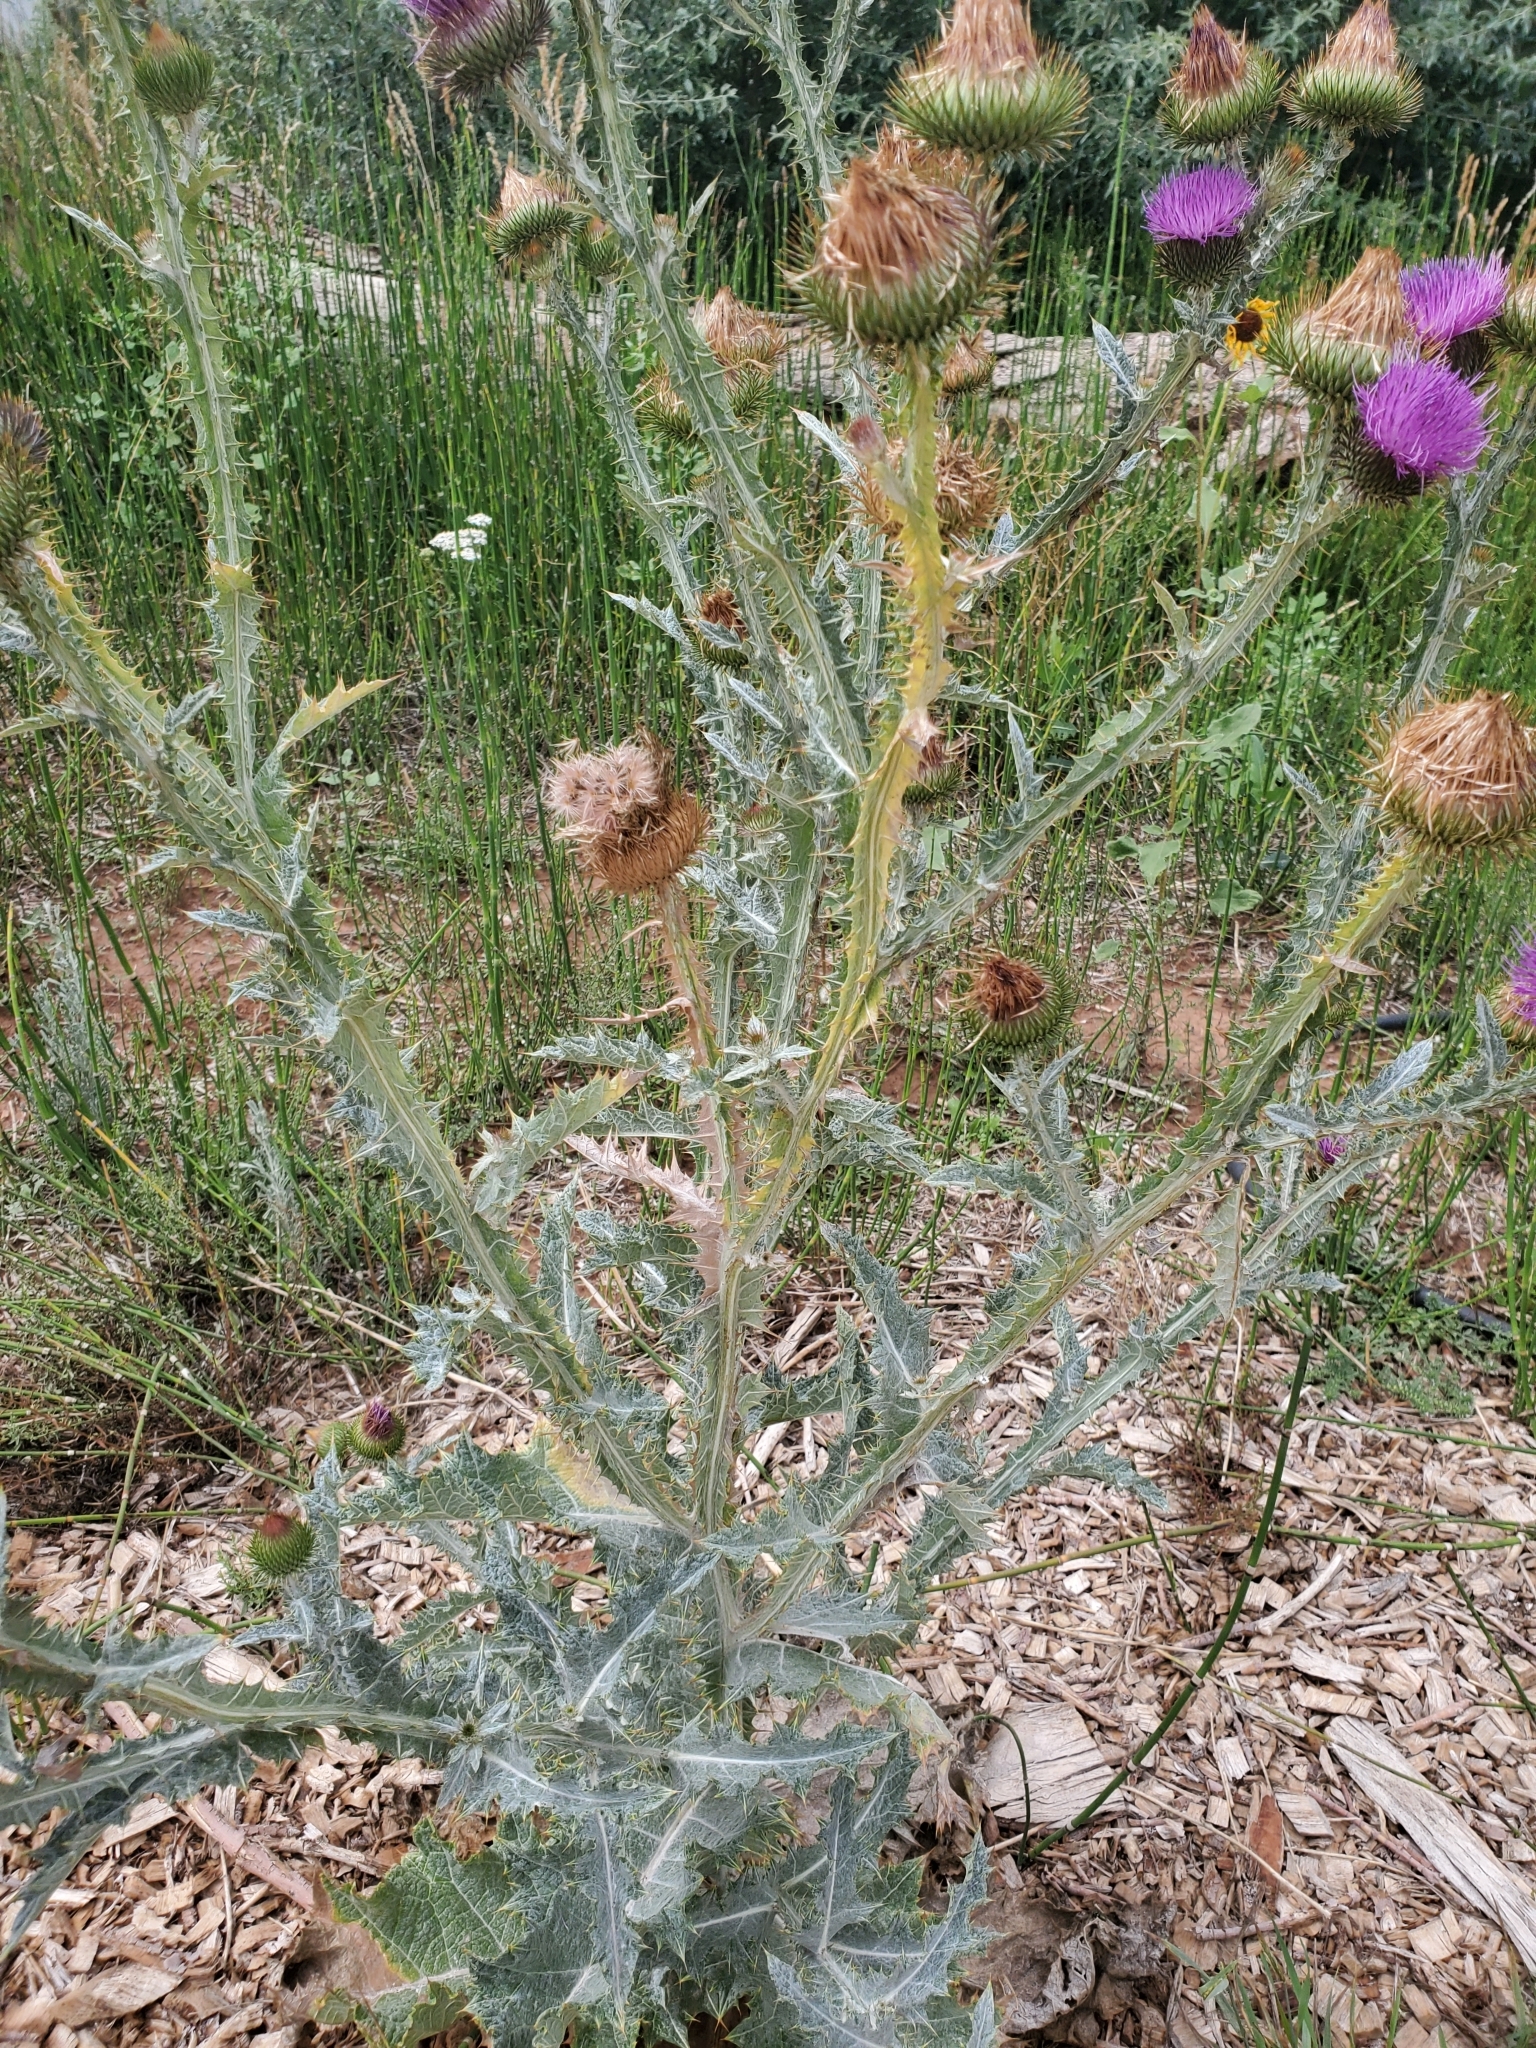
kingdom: Plantae
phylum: Tracheophyta
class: Magnoliopsida
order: Asterales
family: Asteraceae
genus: Onopordum
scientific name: Onopordum acanthium
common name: Scotch thistle
